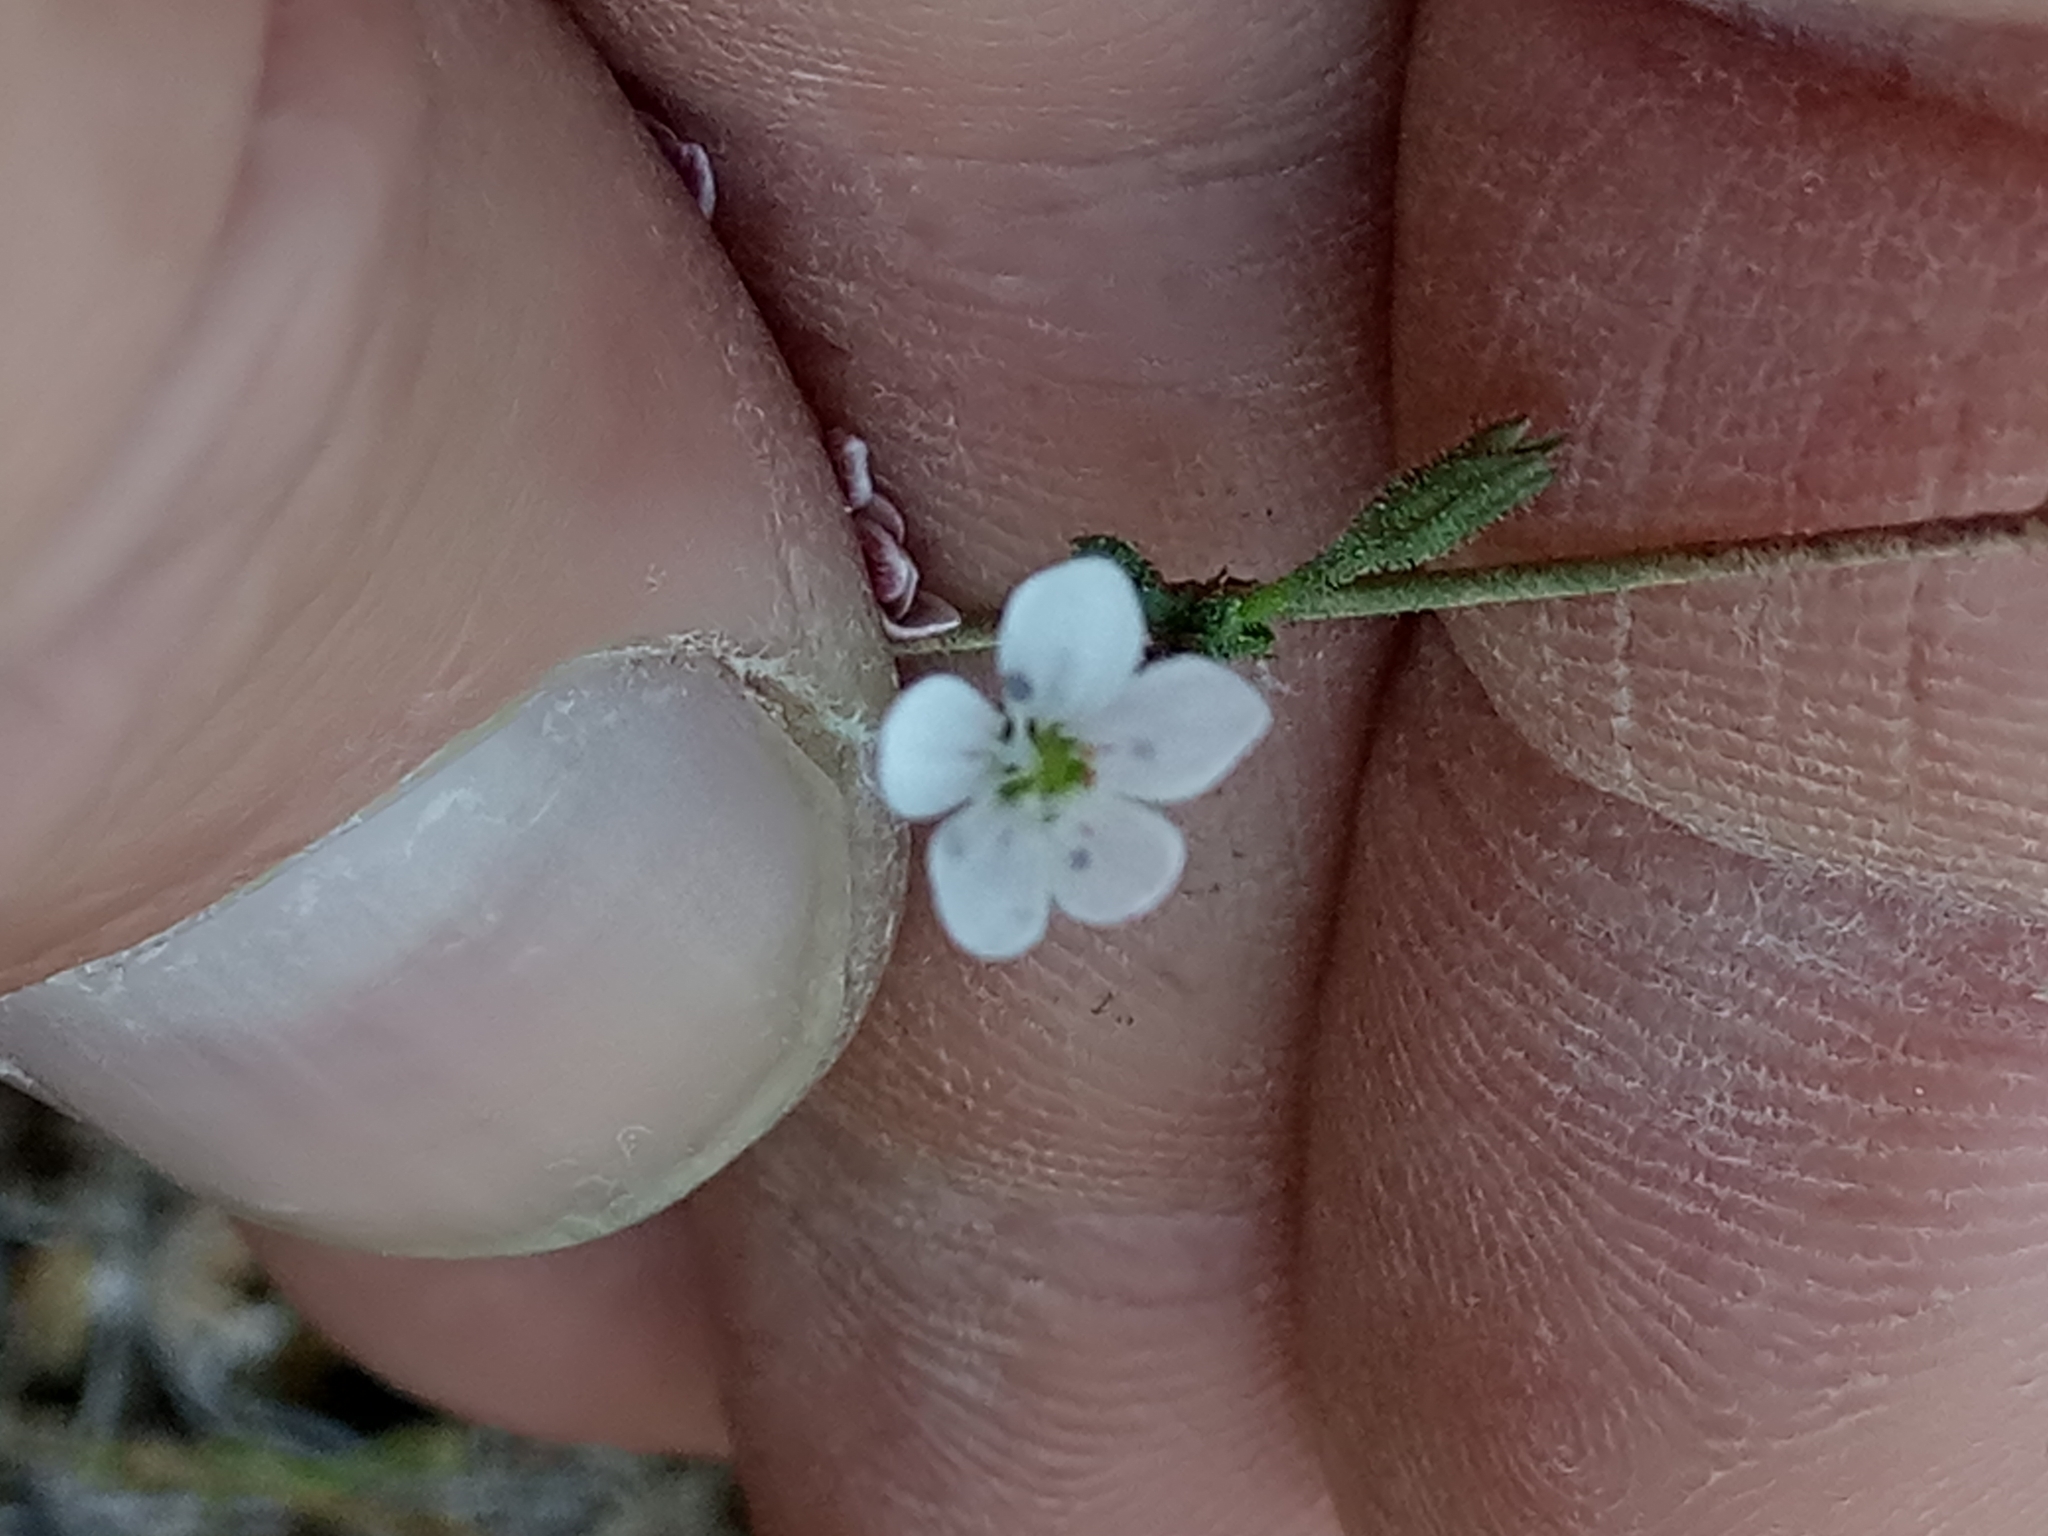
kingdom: Plantae
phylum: Tracheophyta
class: Magnoliopsida
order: Caryophyllales
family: Caryophyllaceae
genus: Dianthus
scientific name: Dianthus illyricus
